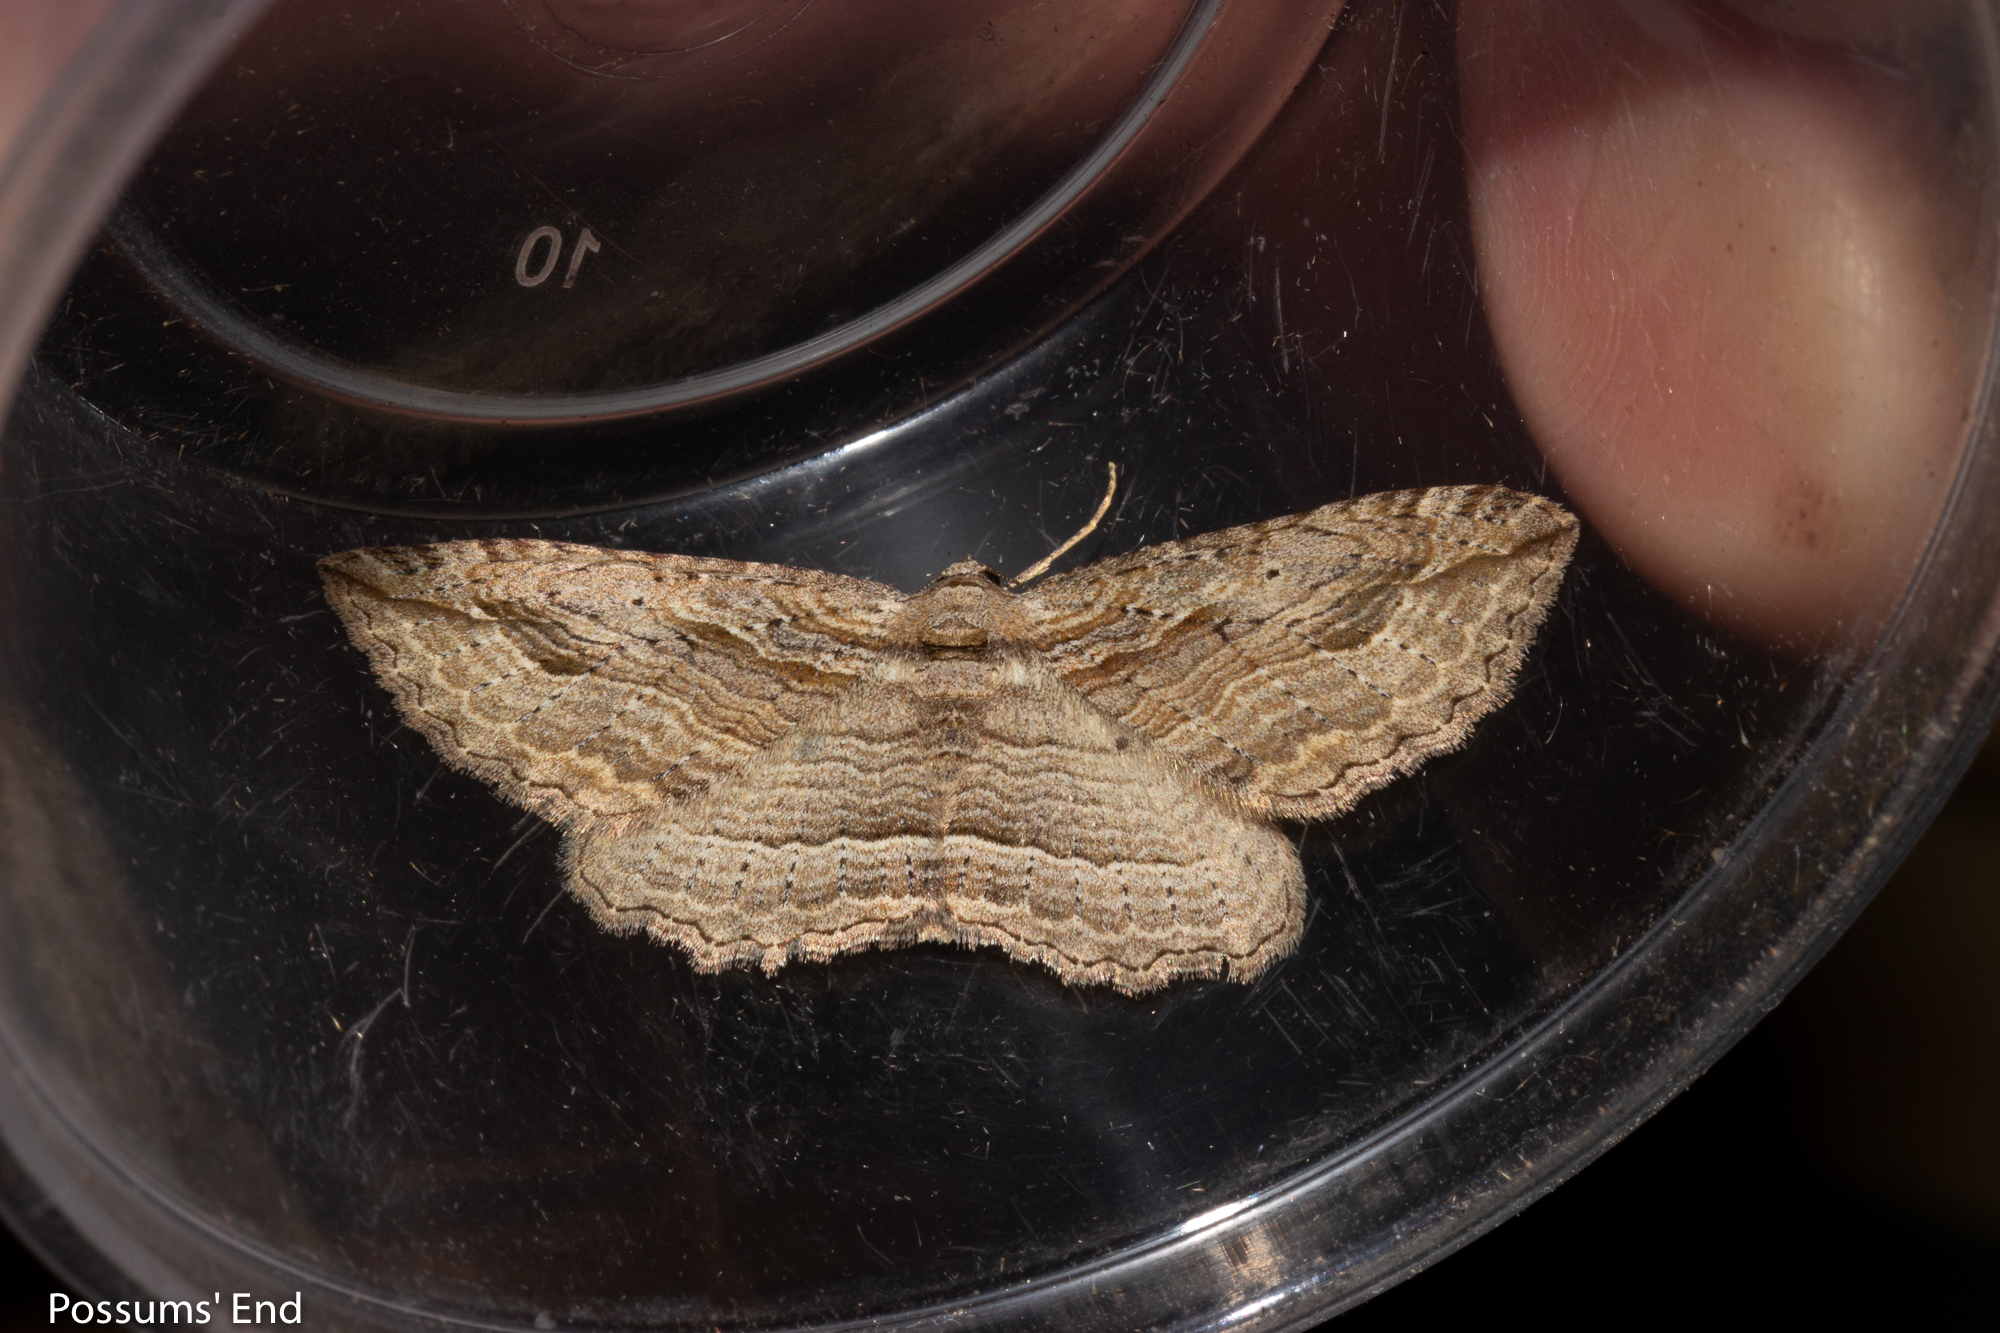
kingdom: Animalia
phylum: Arthropoda
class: Insecta
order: Lepidoptera
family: Geometridae
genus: Austrocidaria
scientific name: Austrocidaria gobiata
